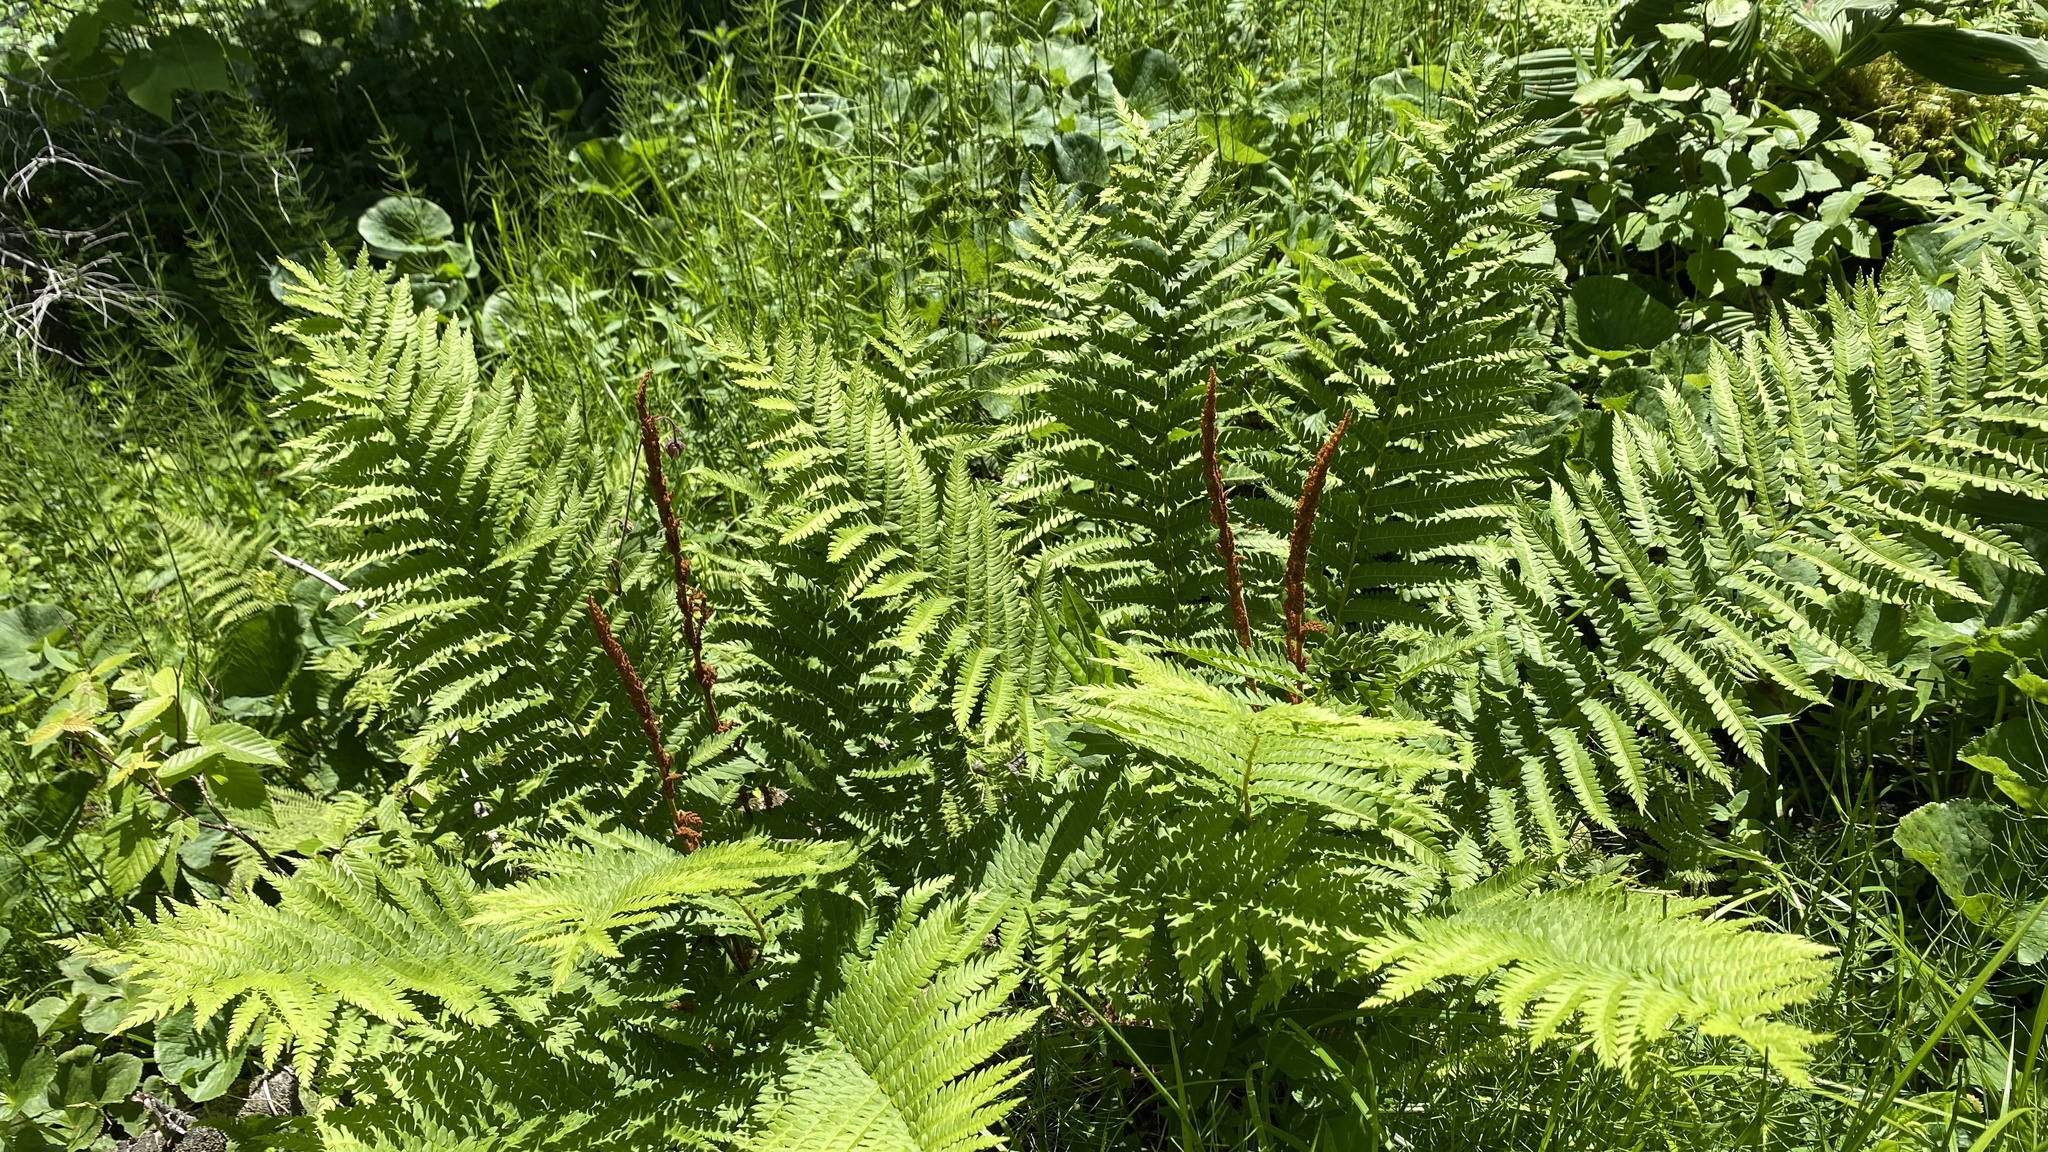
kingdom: Plantae
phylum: Tracheophyta
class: Polypodiopsida
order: Osmundales
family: Osmundaceae
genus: Osmundastrum
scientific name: Osmundastrum cinnamomeum
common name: Cinnamon fern
